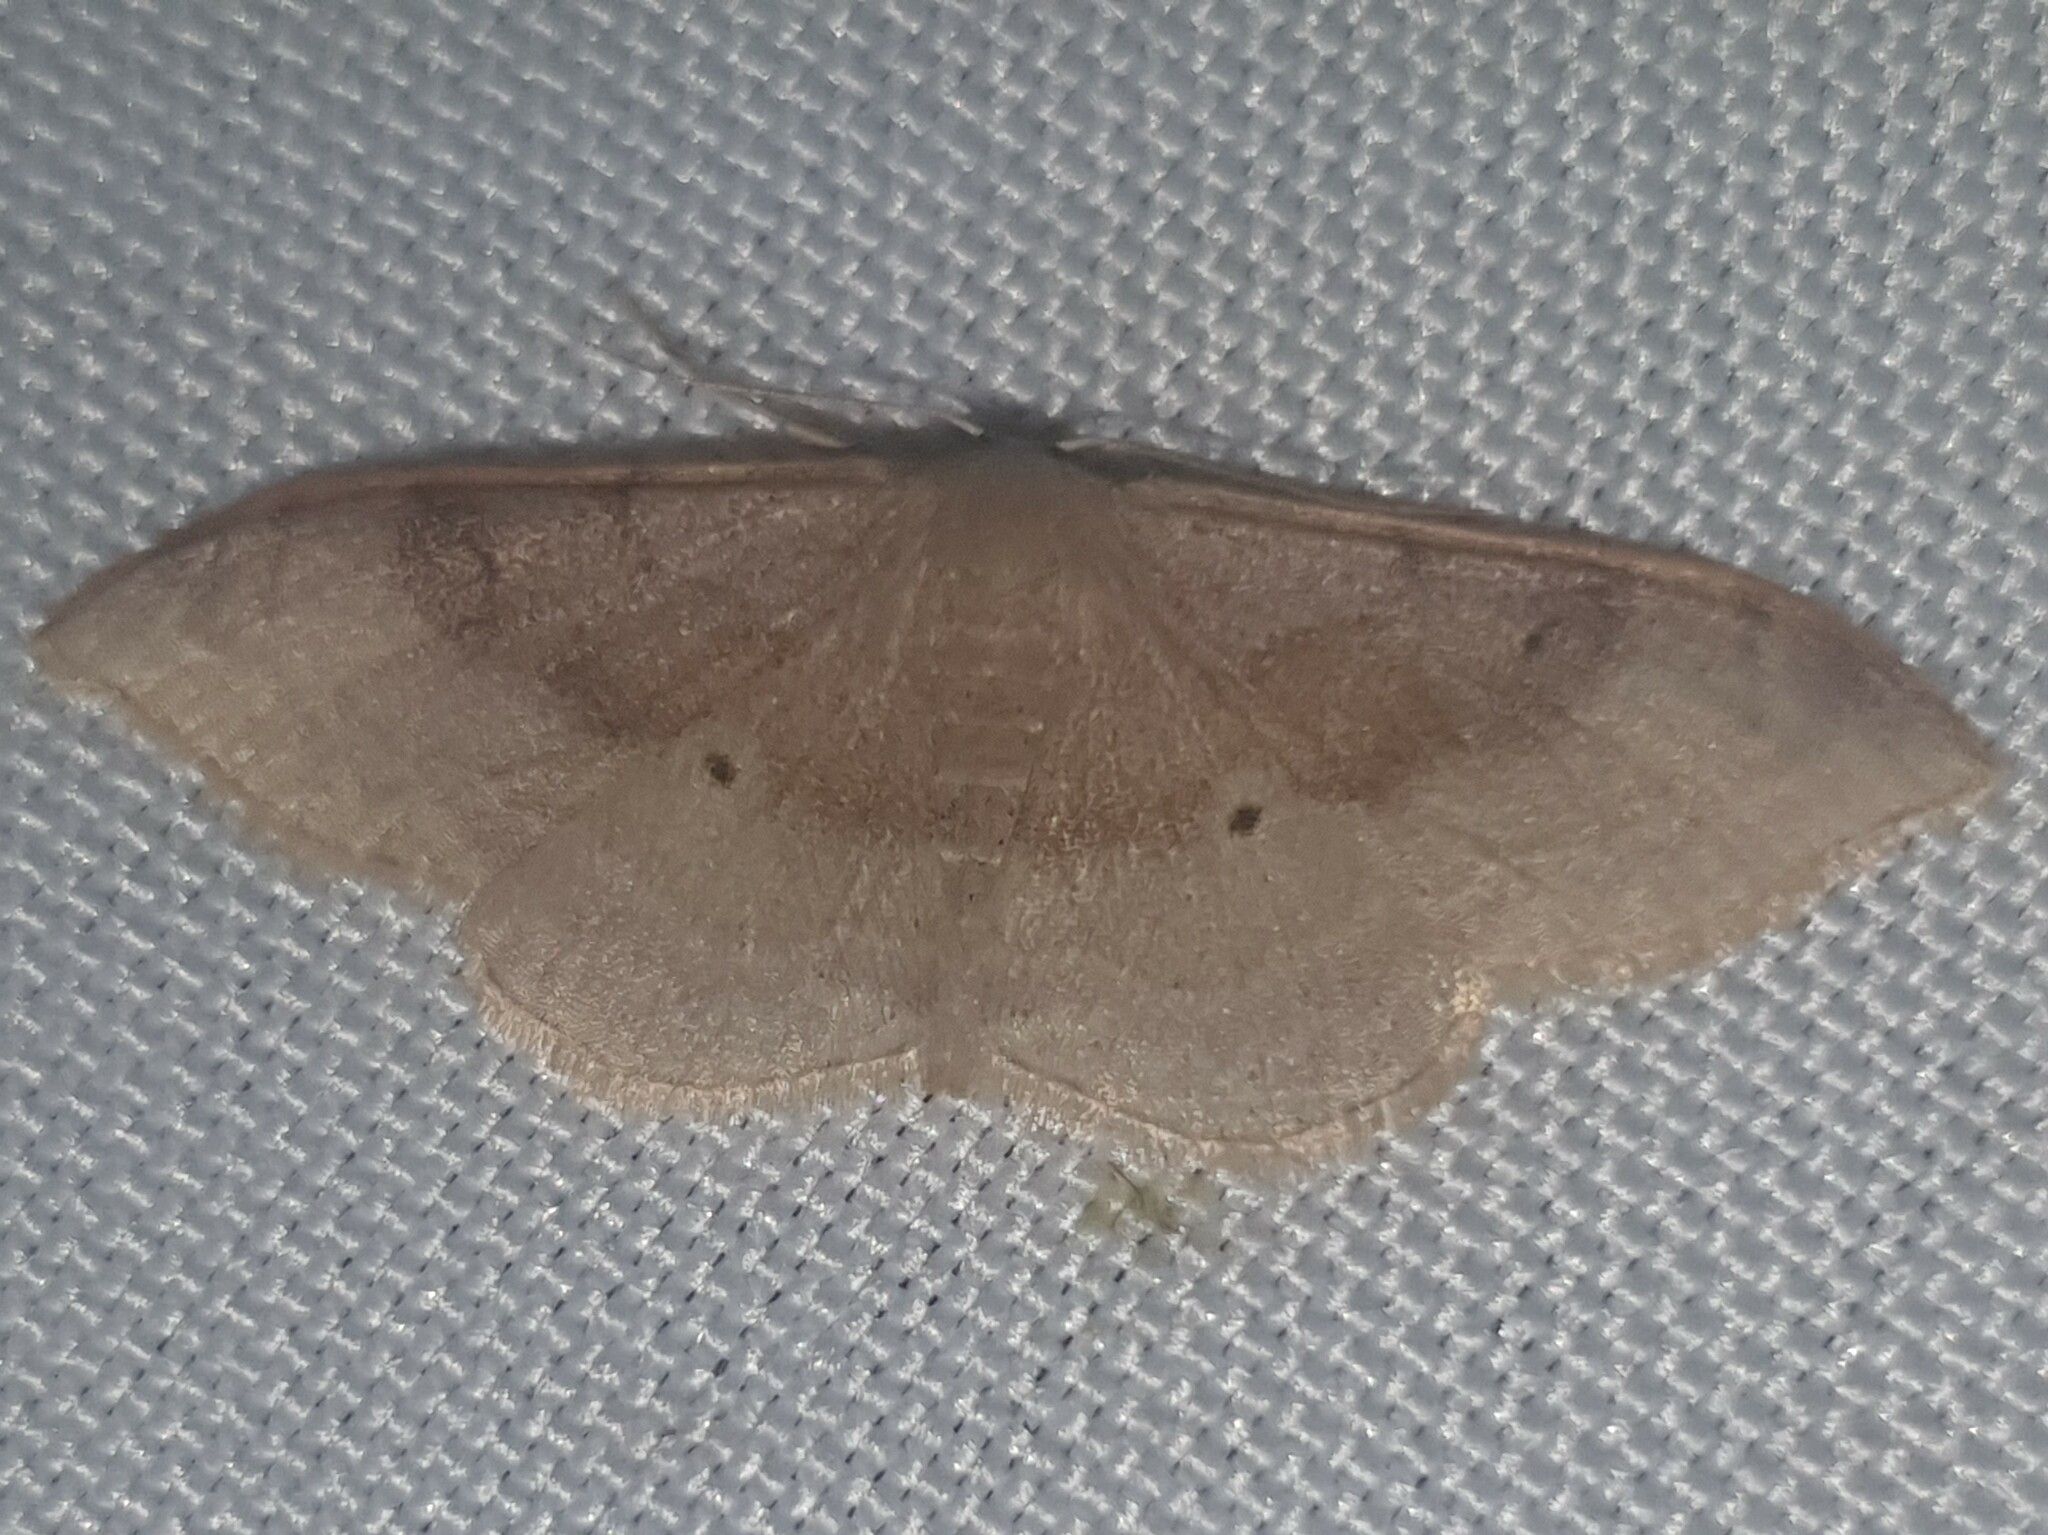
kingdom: Animalia
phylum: Arthropoda
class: Insecta
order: Lepidoptera
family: Geometridae
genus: Idaea
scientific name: Idaea degeneraria
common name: Portland ribbon wave
